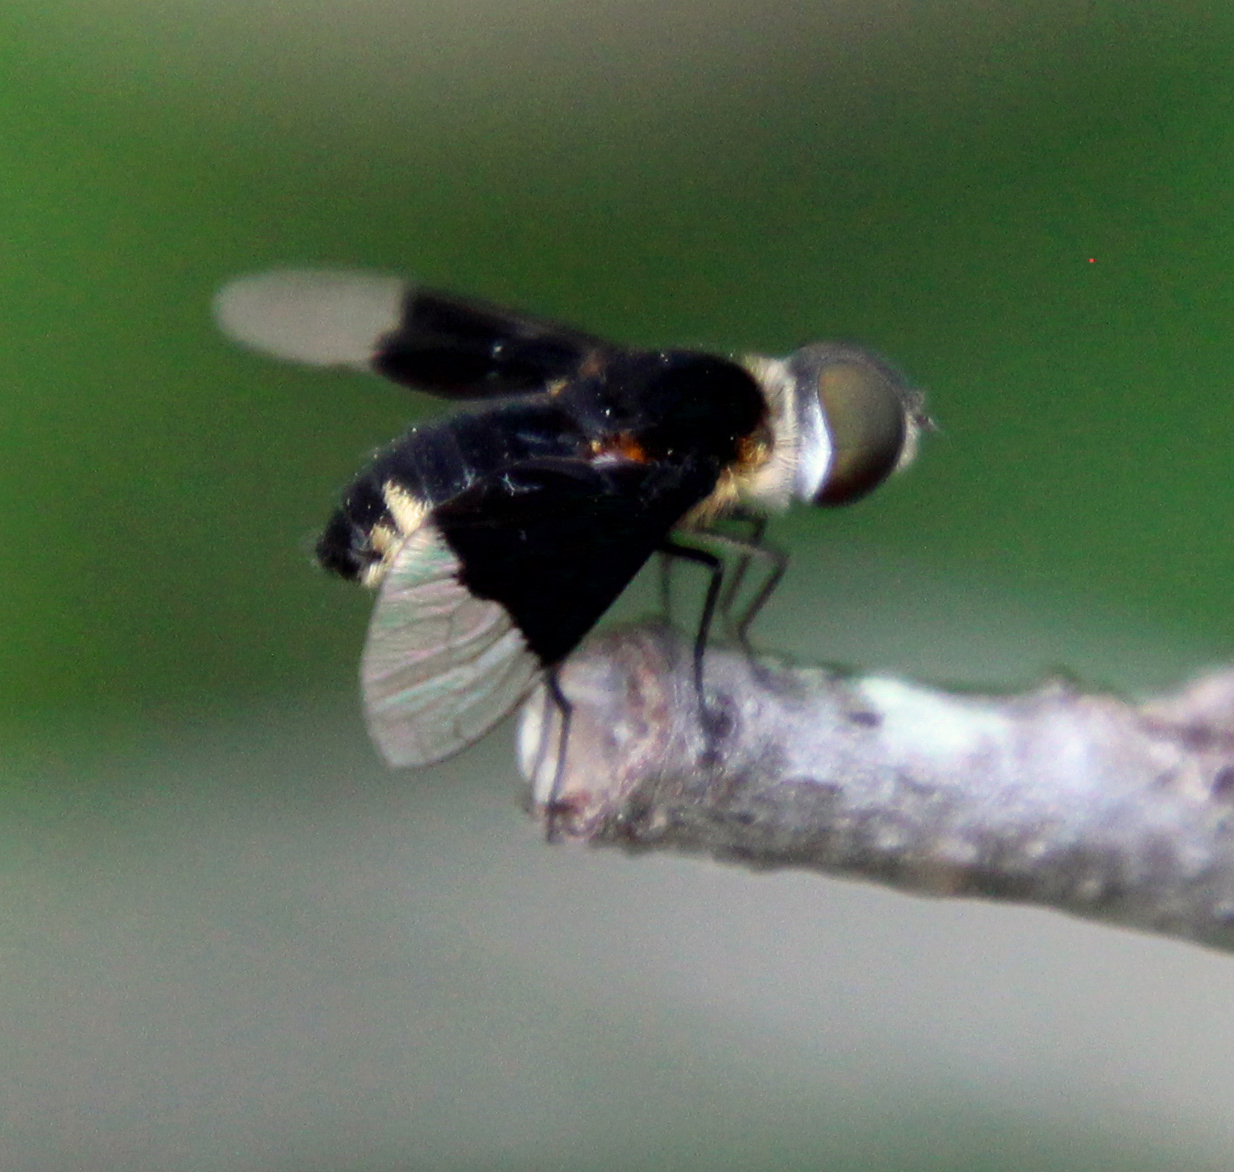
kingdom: Animalia
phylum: Arthropoda
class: Insecta
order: Diptera
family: Bombyliidae
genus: Ins
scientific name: Ins celeris
